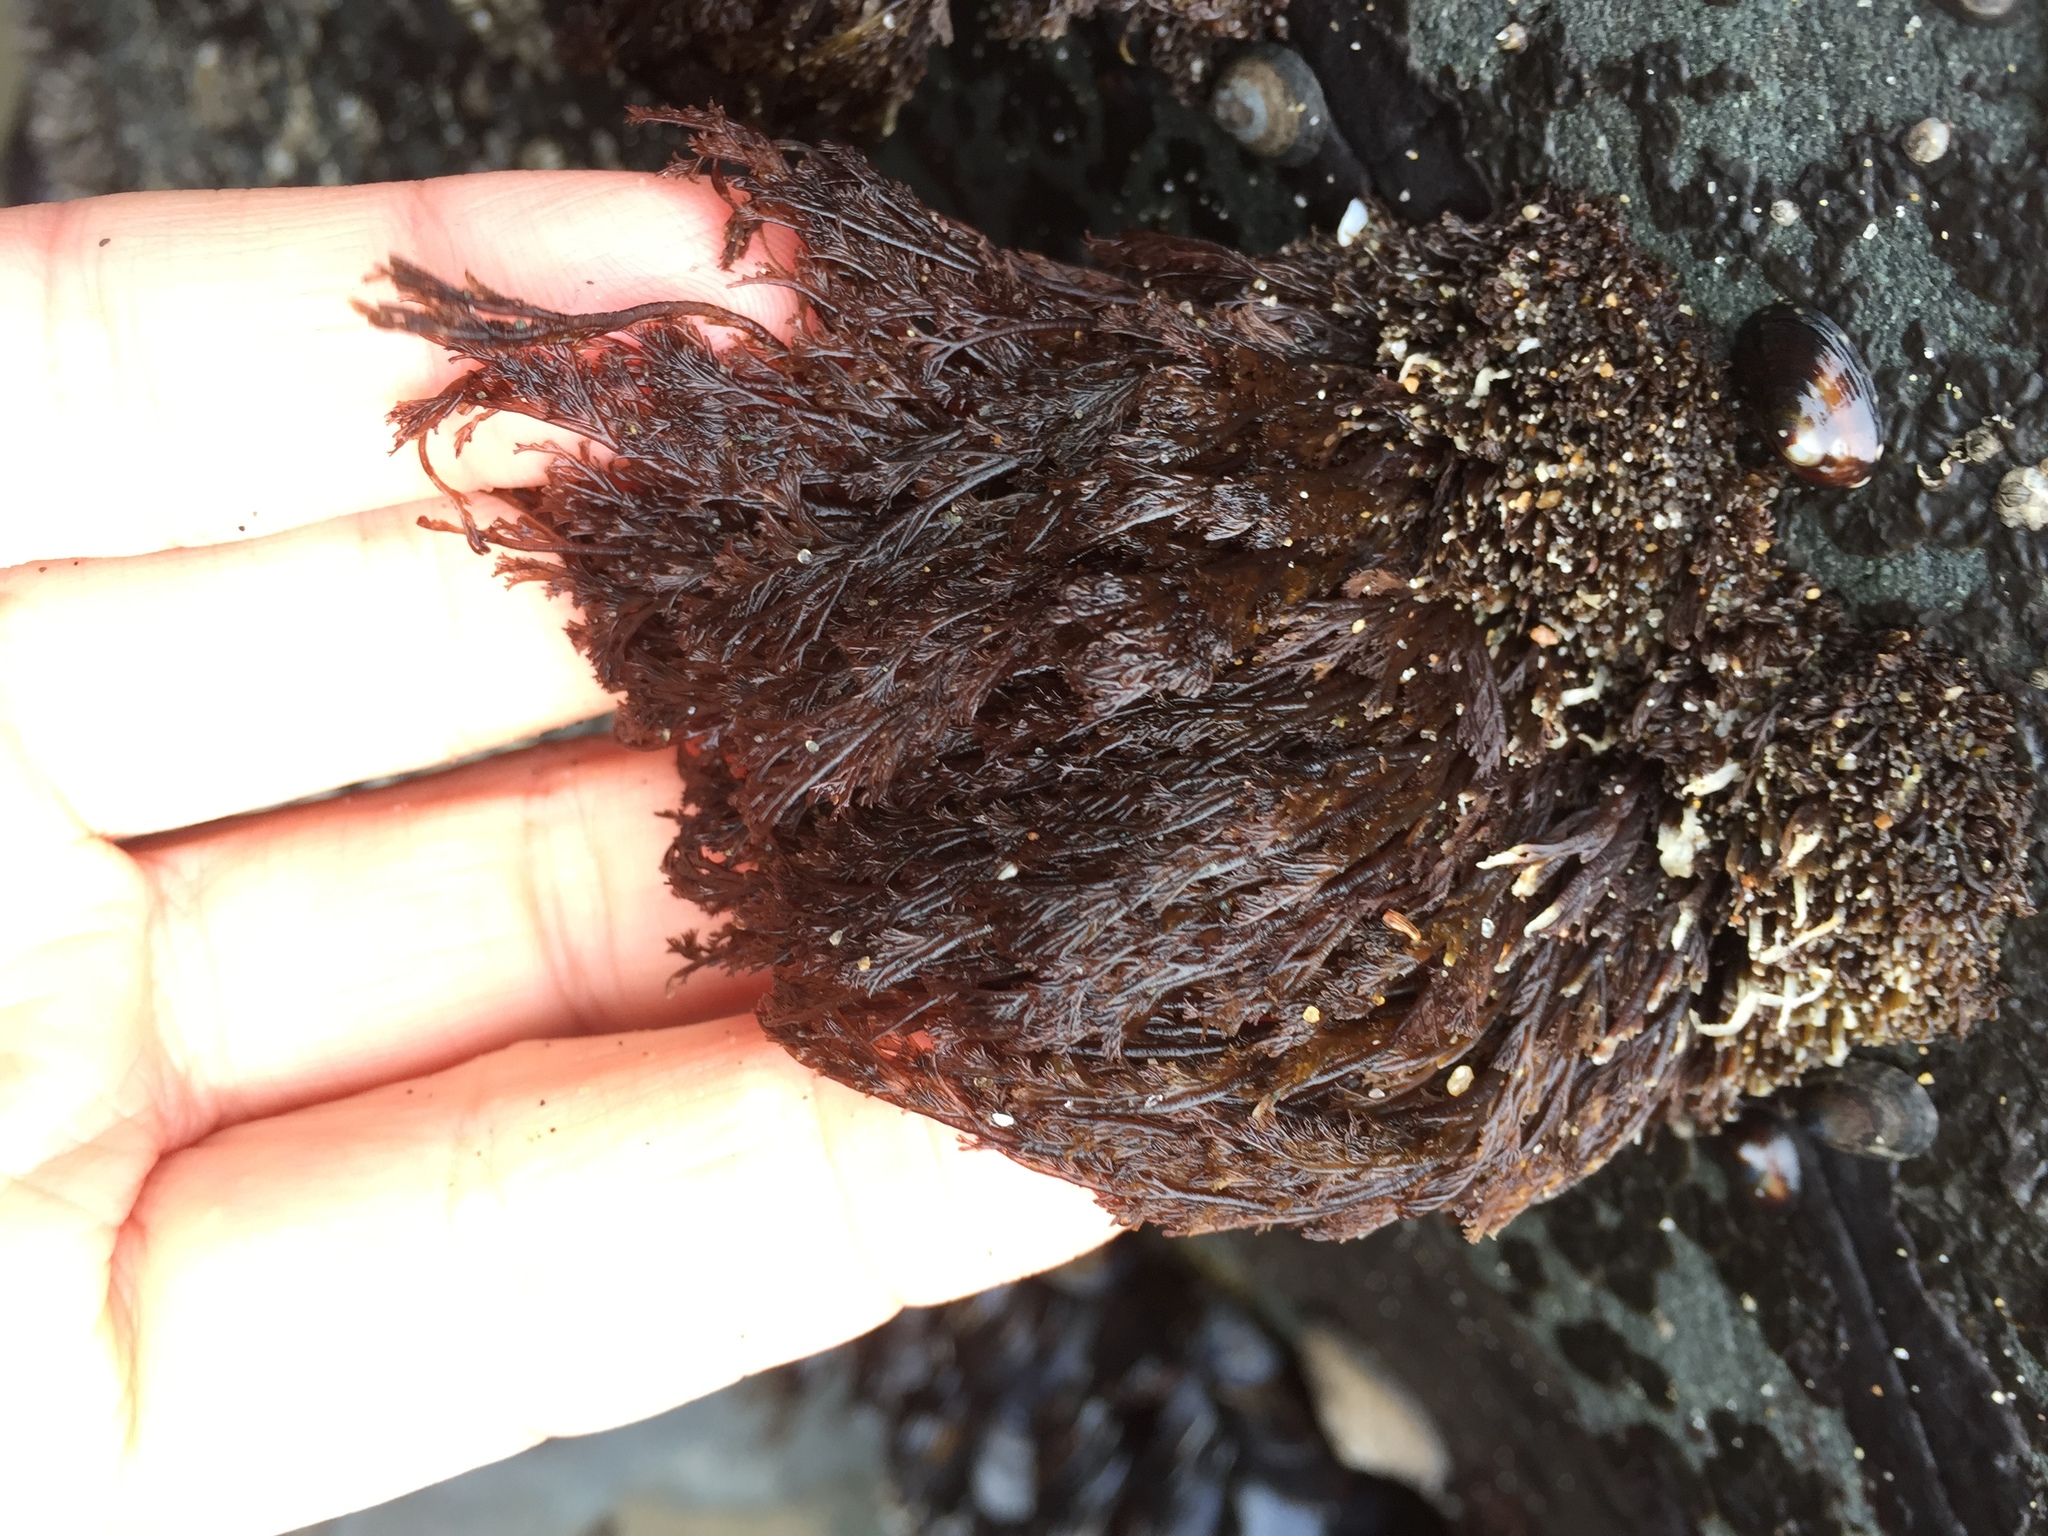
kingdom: Plantae
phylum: Rhodophyta
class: Florideophyceae
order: Ceramiales
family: Ceramiaceae
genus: Microcladia
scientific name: Microcladia borealis
